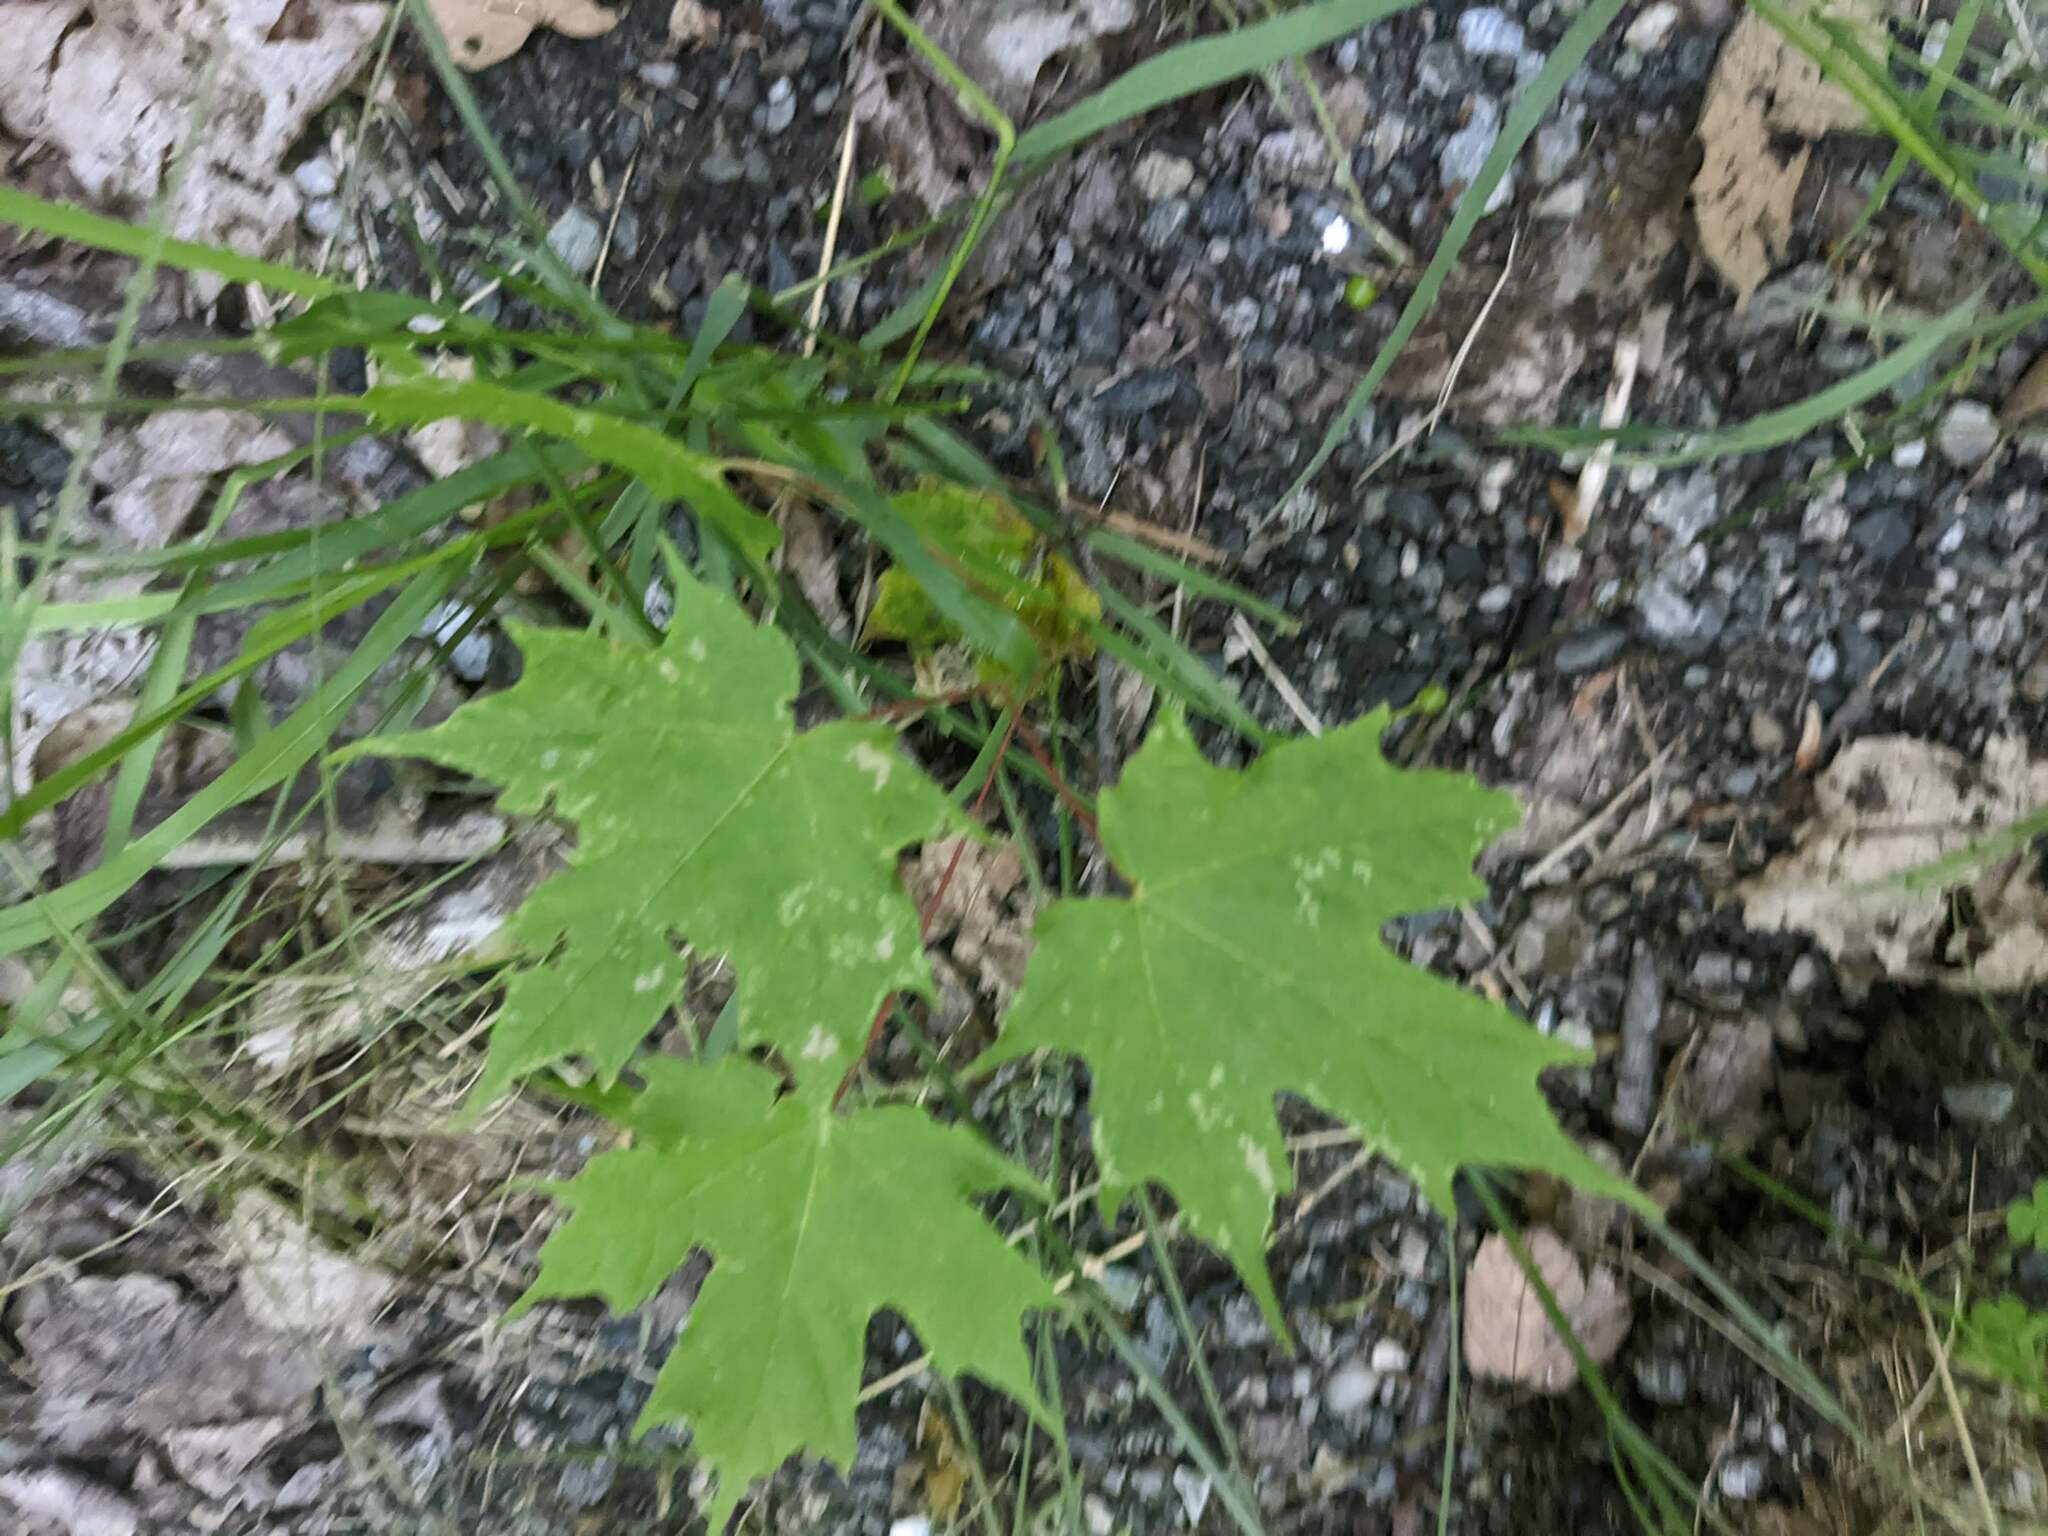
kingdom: Plantae
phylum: Tracheophyta
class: Magnoliopsida
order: Sapindales
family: Sapindaceae
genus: Acer
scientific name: Acer saccharum
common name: Sugar maple
